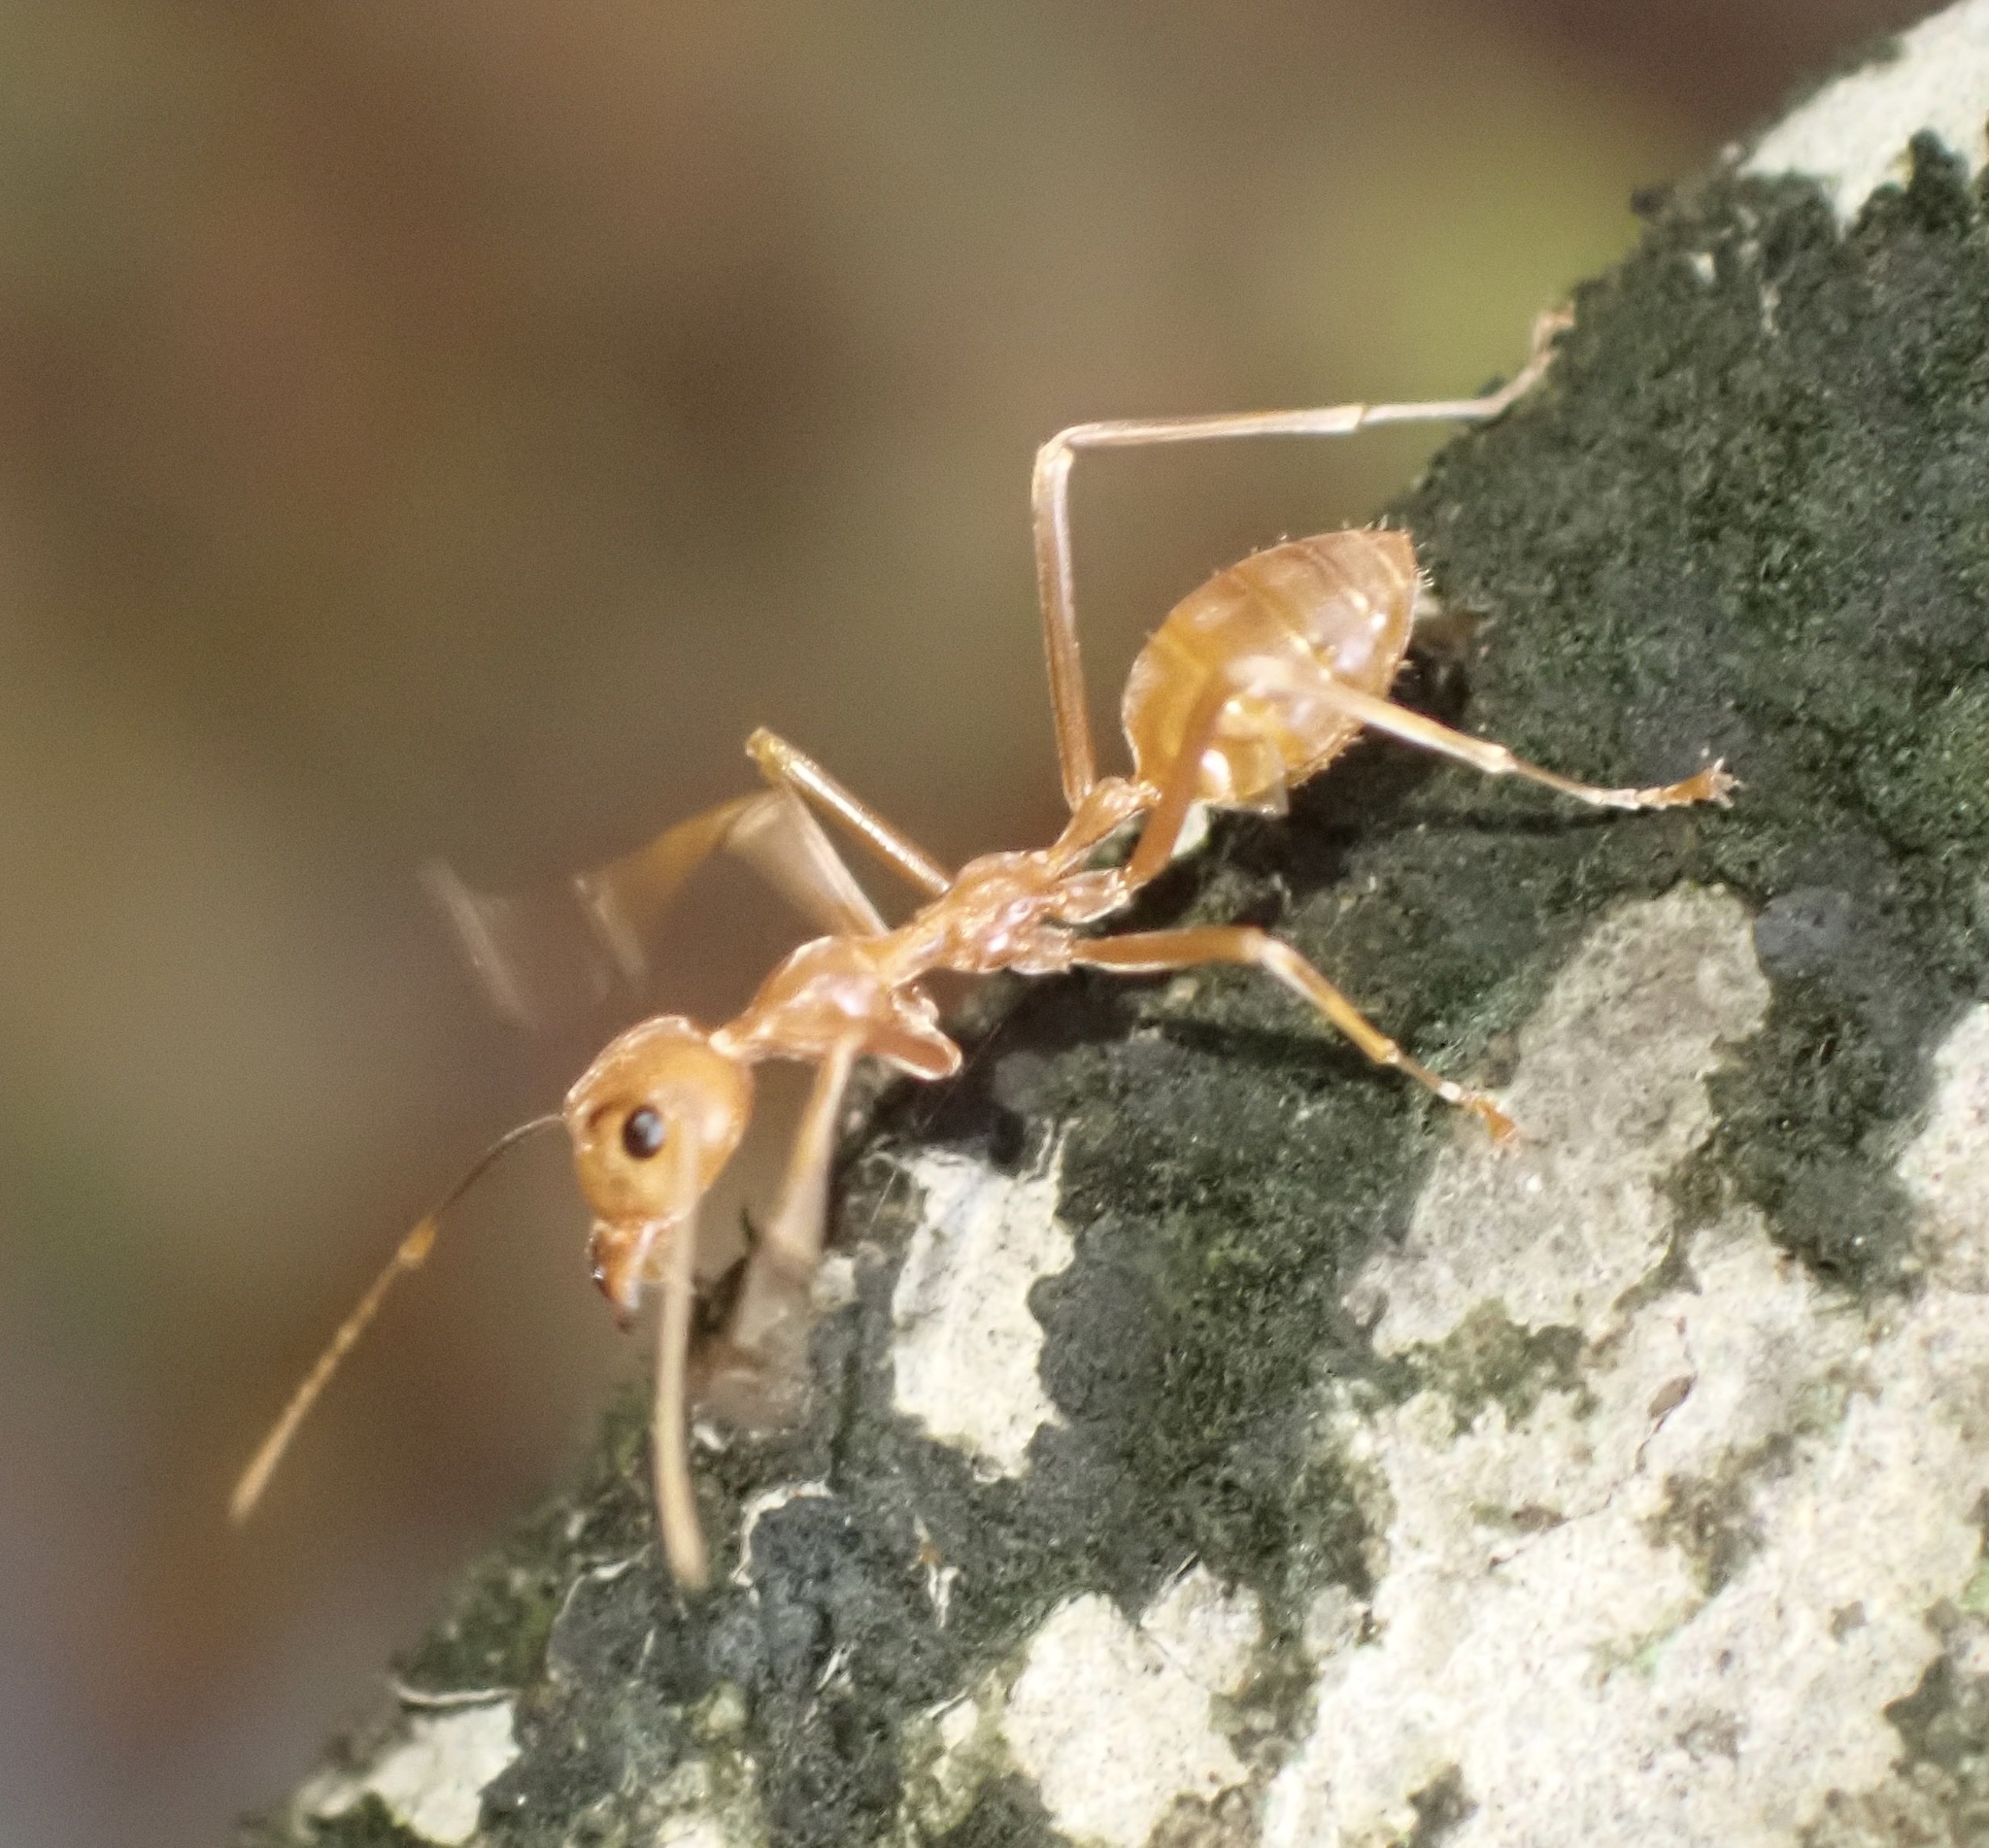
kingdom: Animalia
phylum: Arthropoda
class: Insecta
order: Hymenoptera
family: Formicidae
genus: Oecophylla
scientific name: Oecophylla smaragdina
